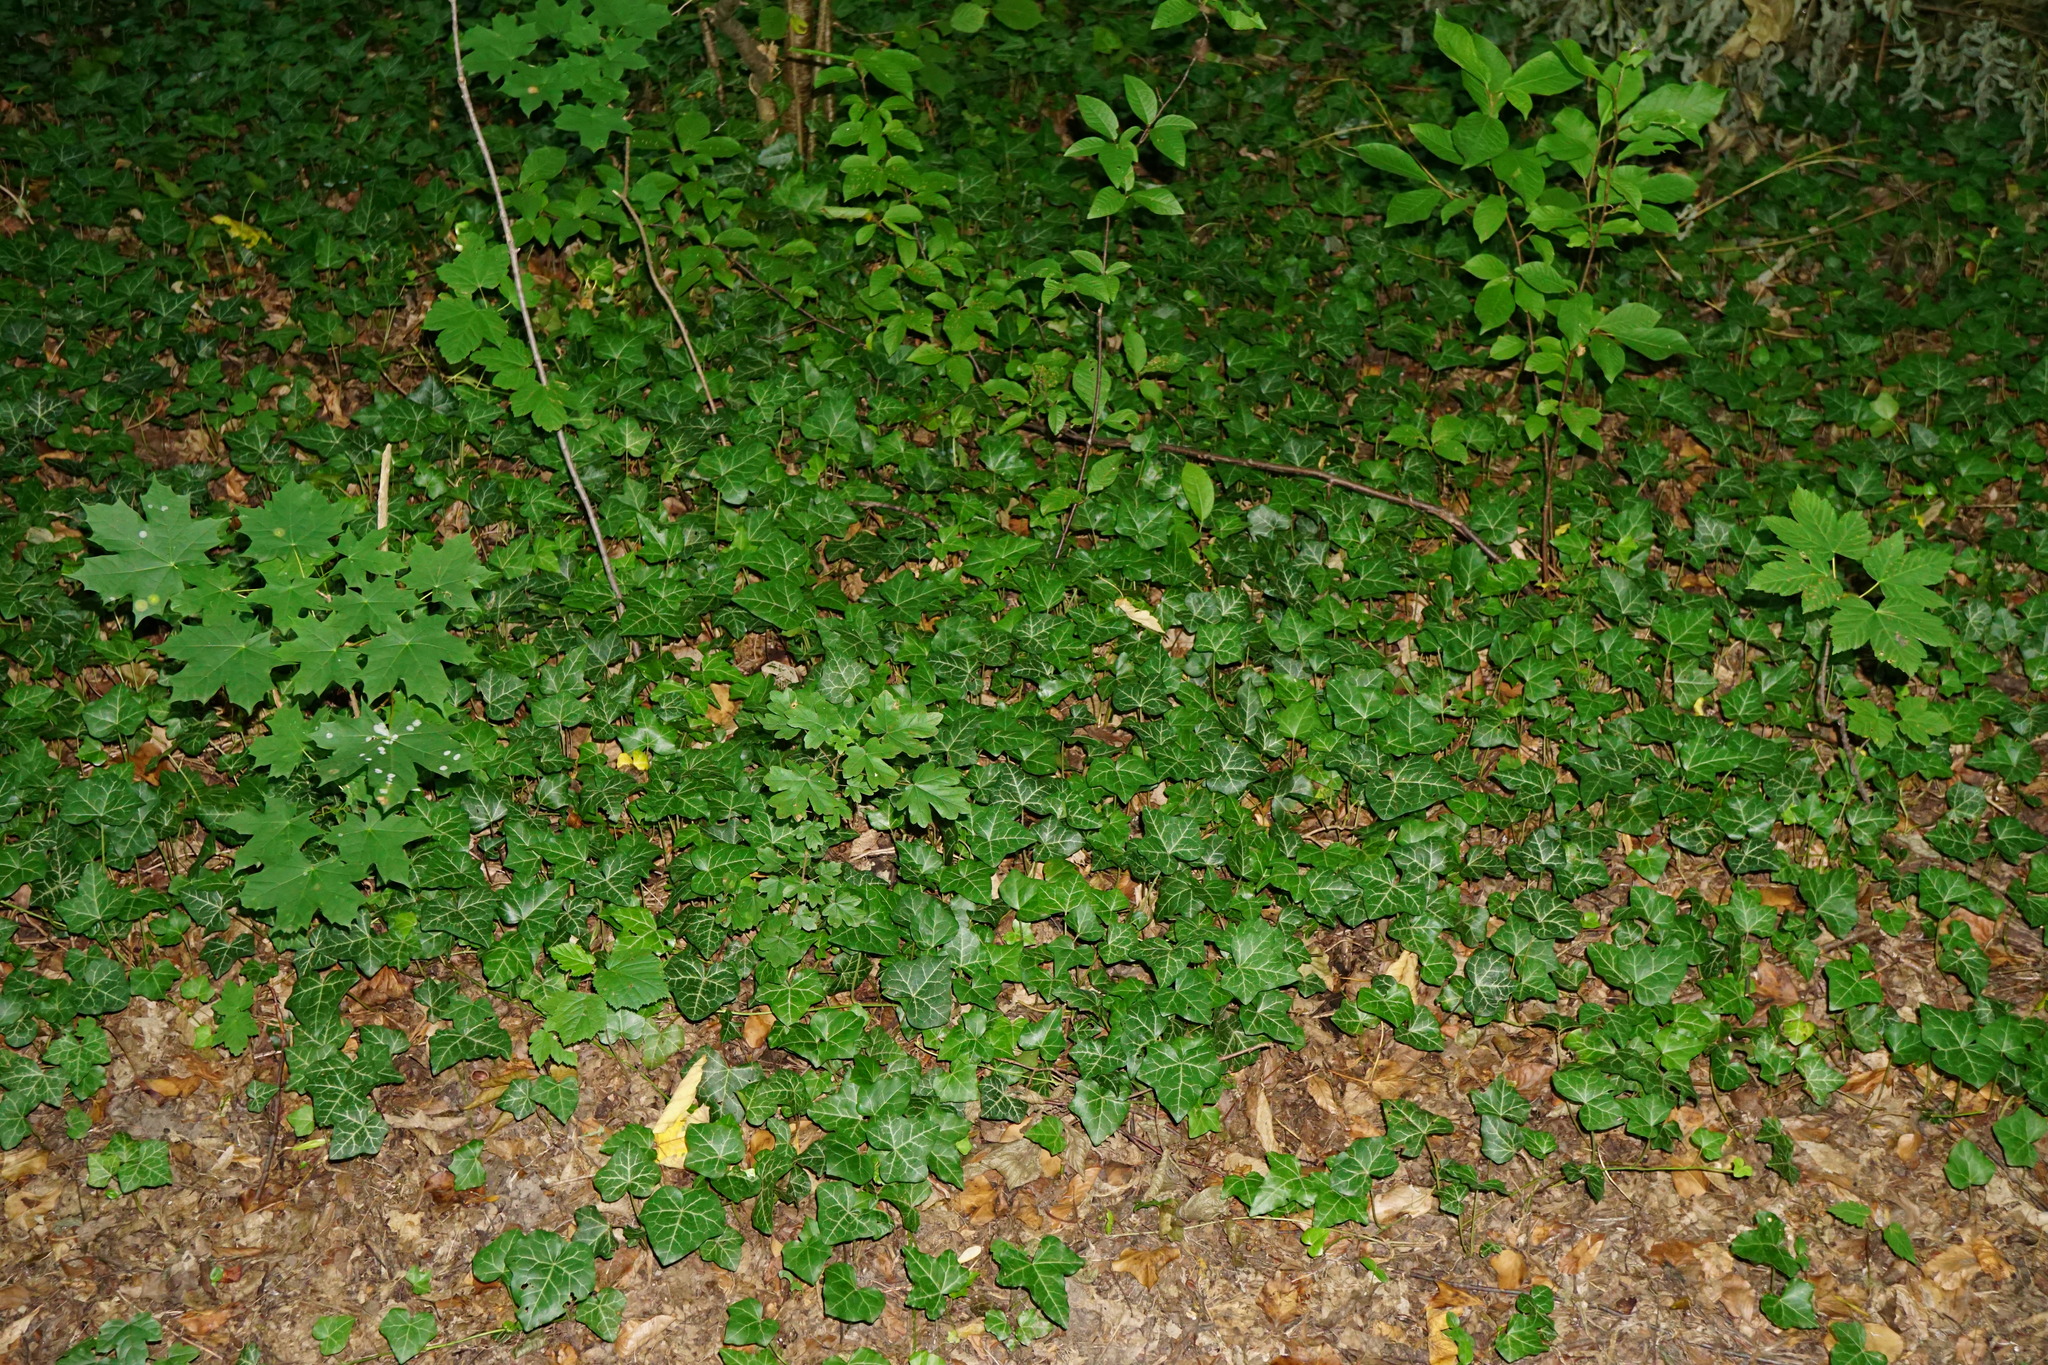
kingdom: Plantae
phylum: Tracheophyta
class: Magnoliopsida
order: Sapindales
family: Sapindaceae
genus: Acer
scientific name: Acer campestre
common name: Field maple
